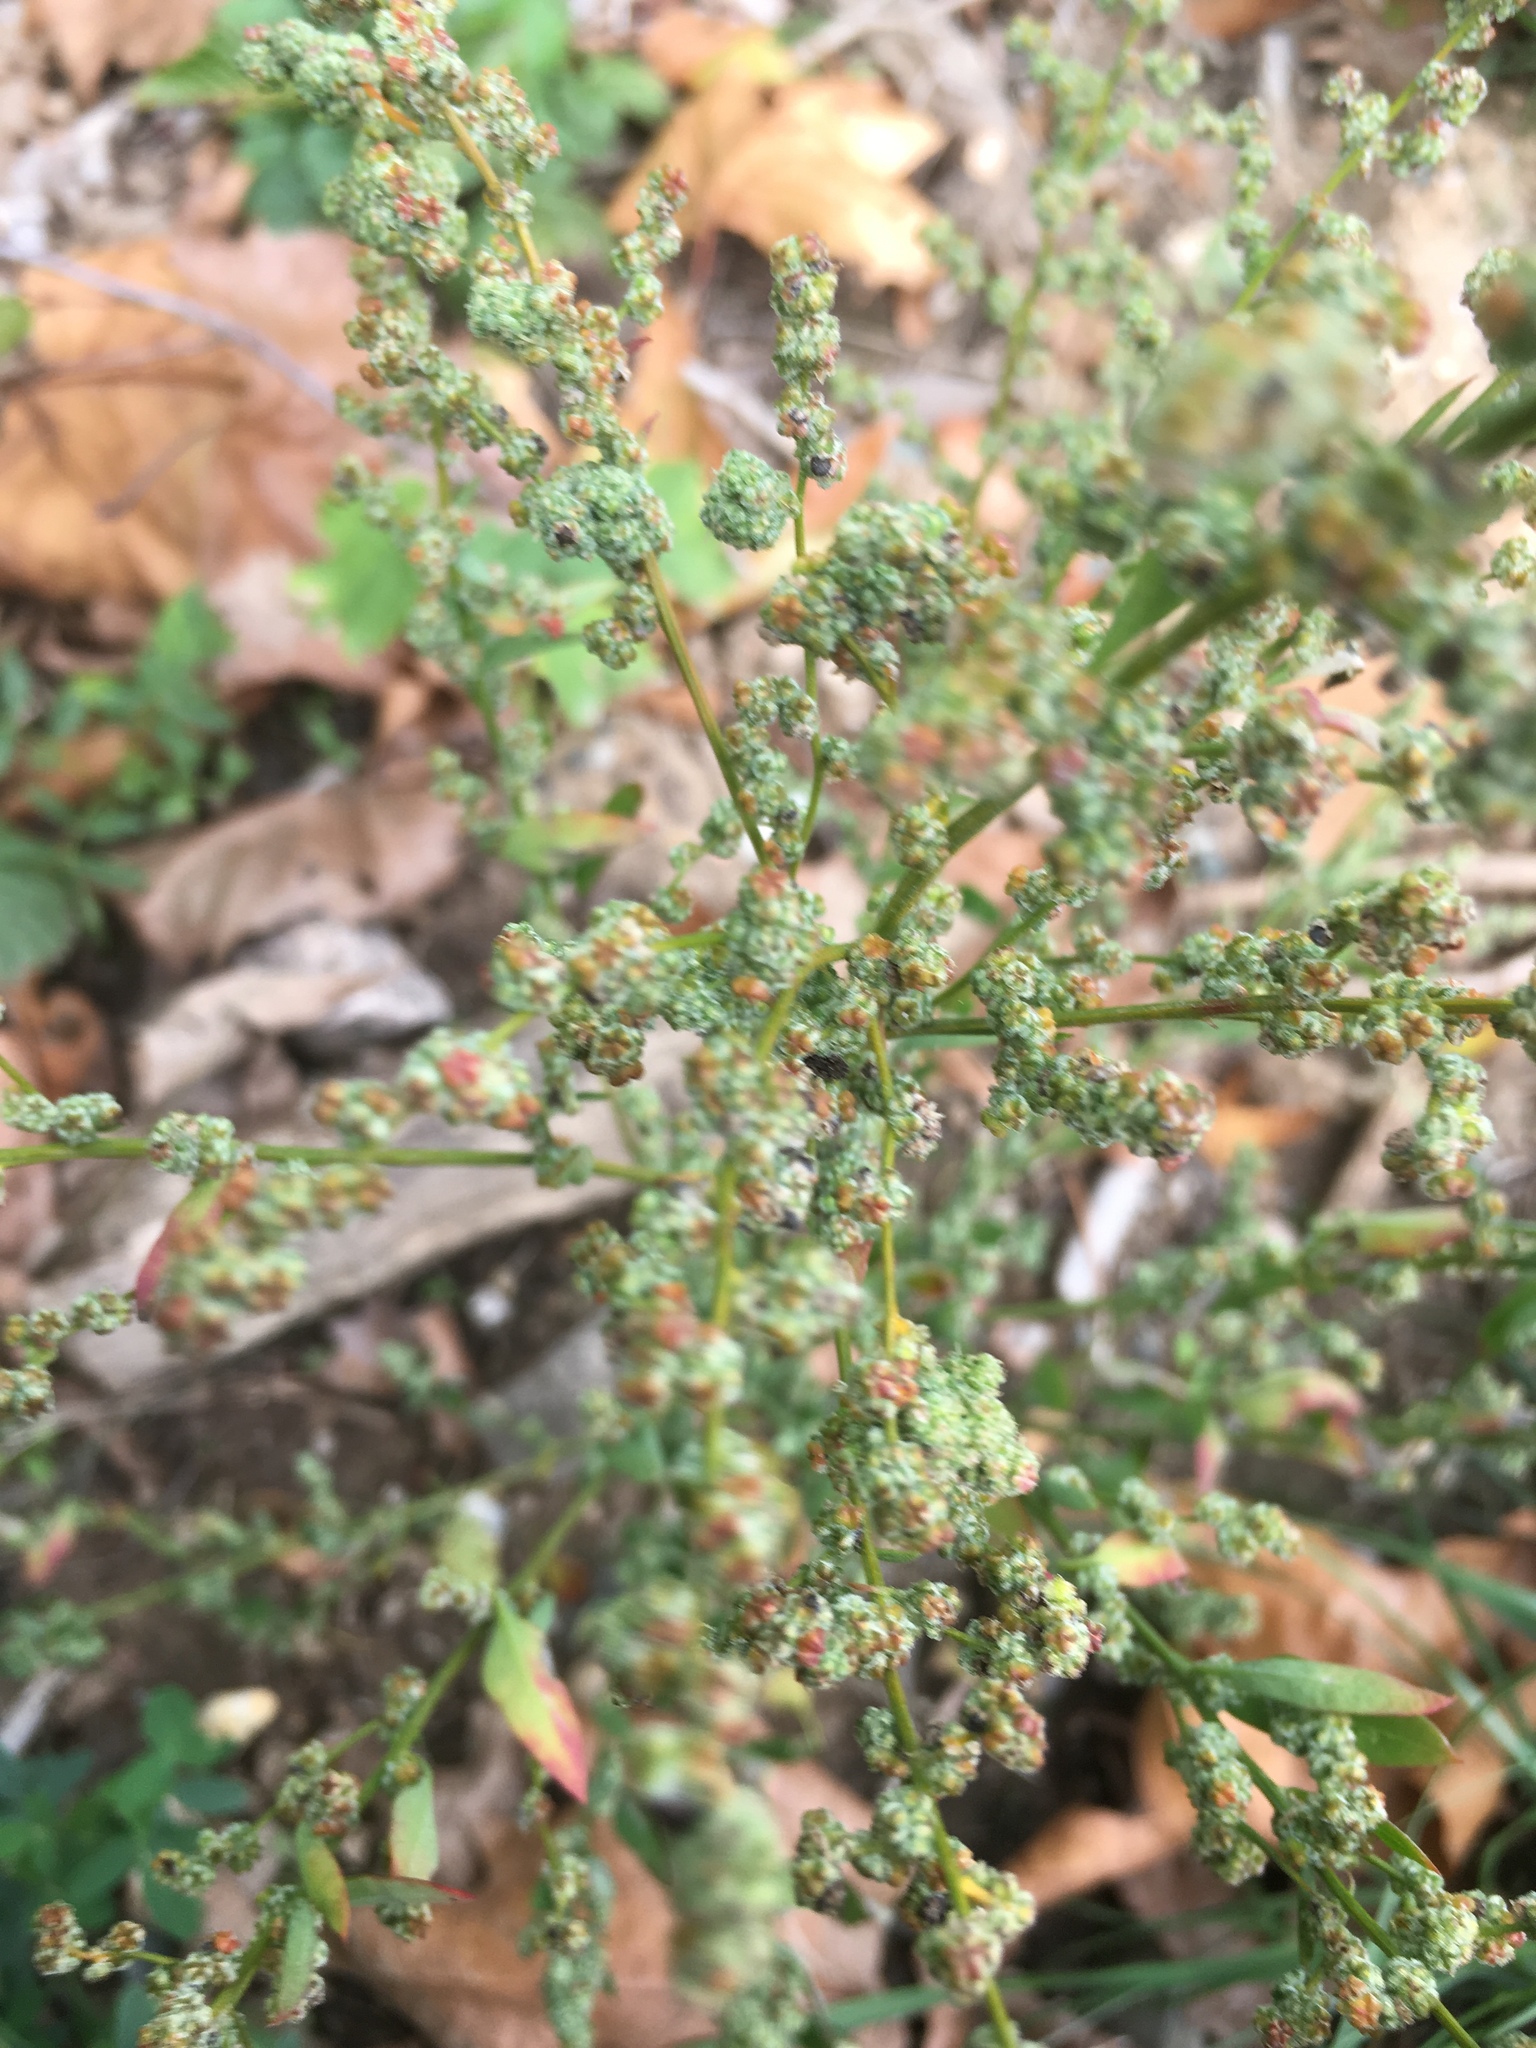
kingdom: Plantae
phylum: Tracheophyta
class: Magnoliopsida
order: Caryophyllales
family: Amaranthaceae
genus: Chenopodium
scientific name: Chenopodium album
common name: Fat-hen
